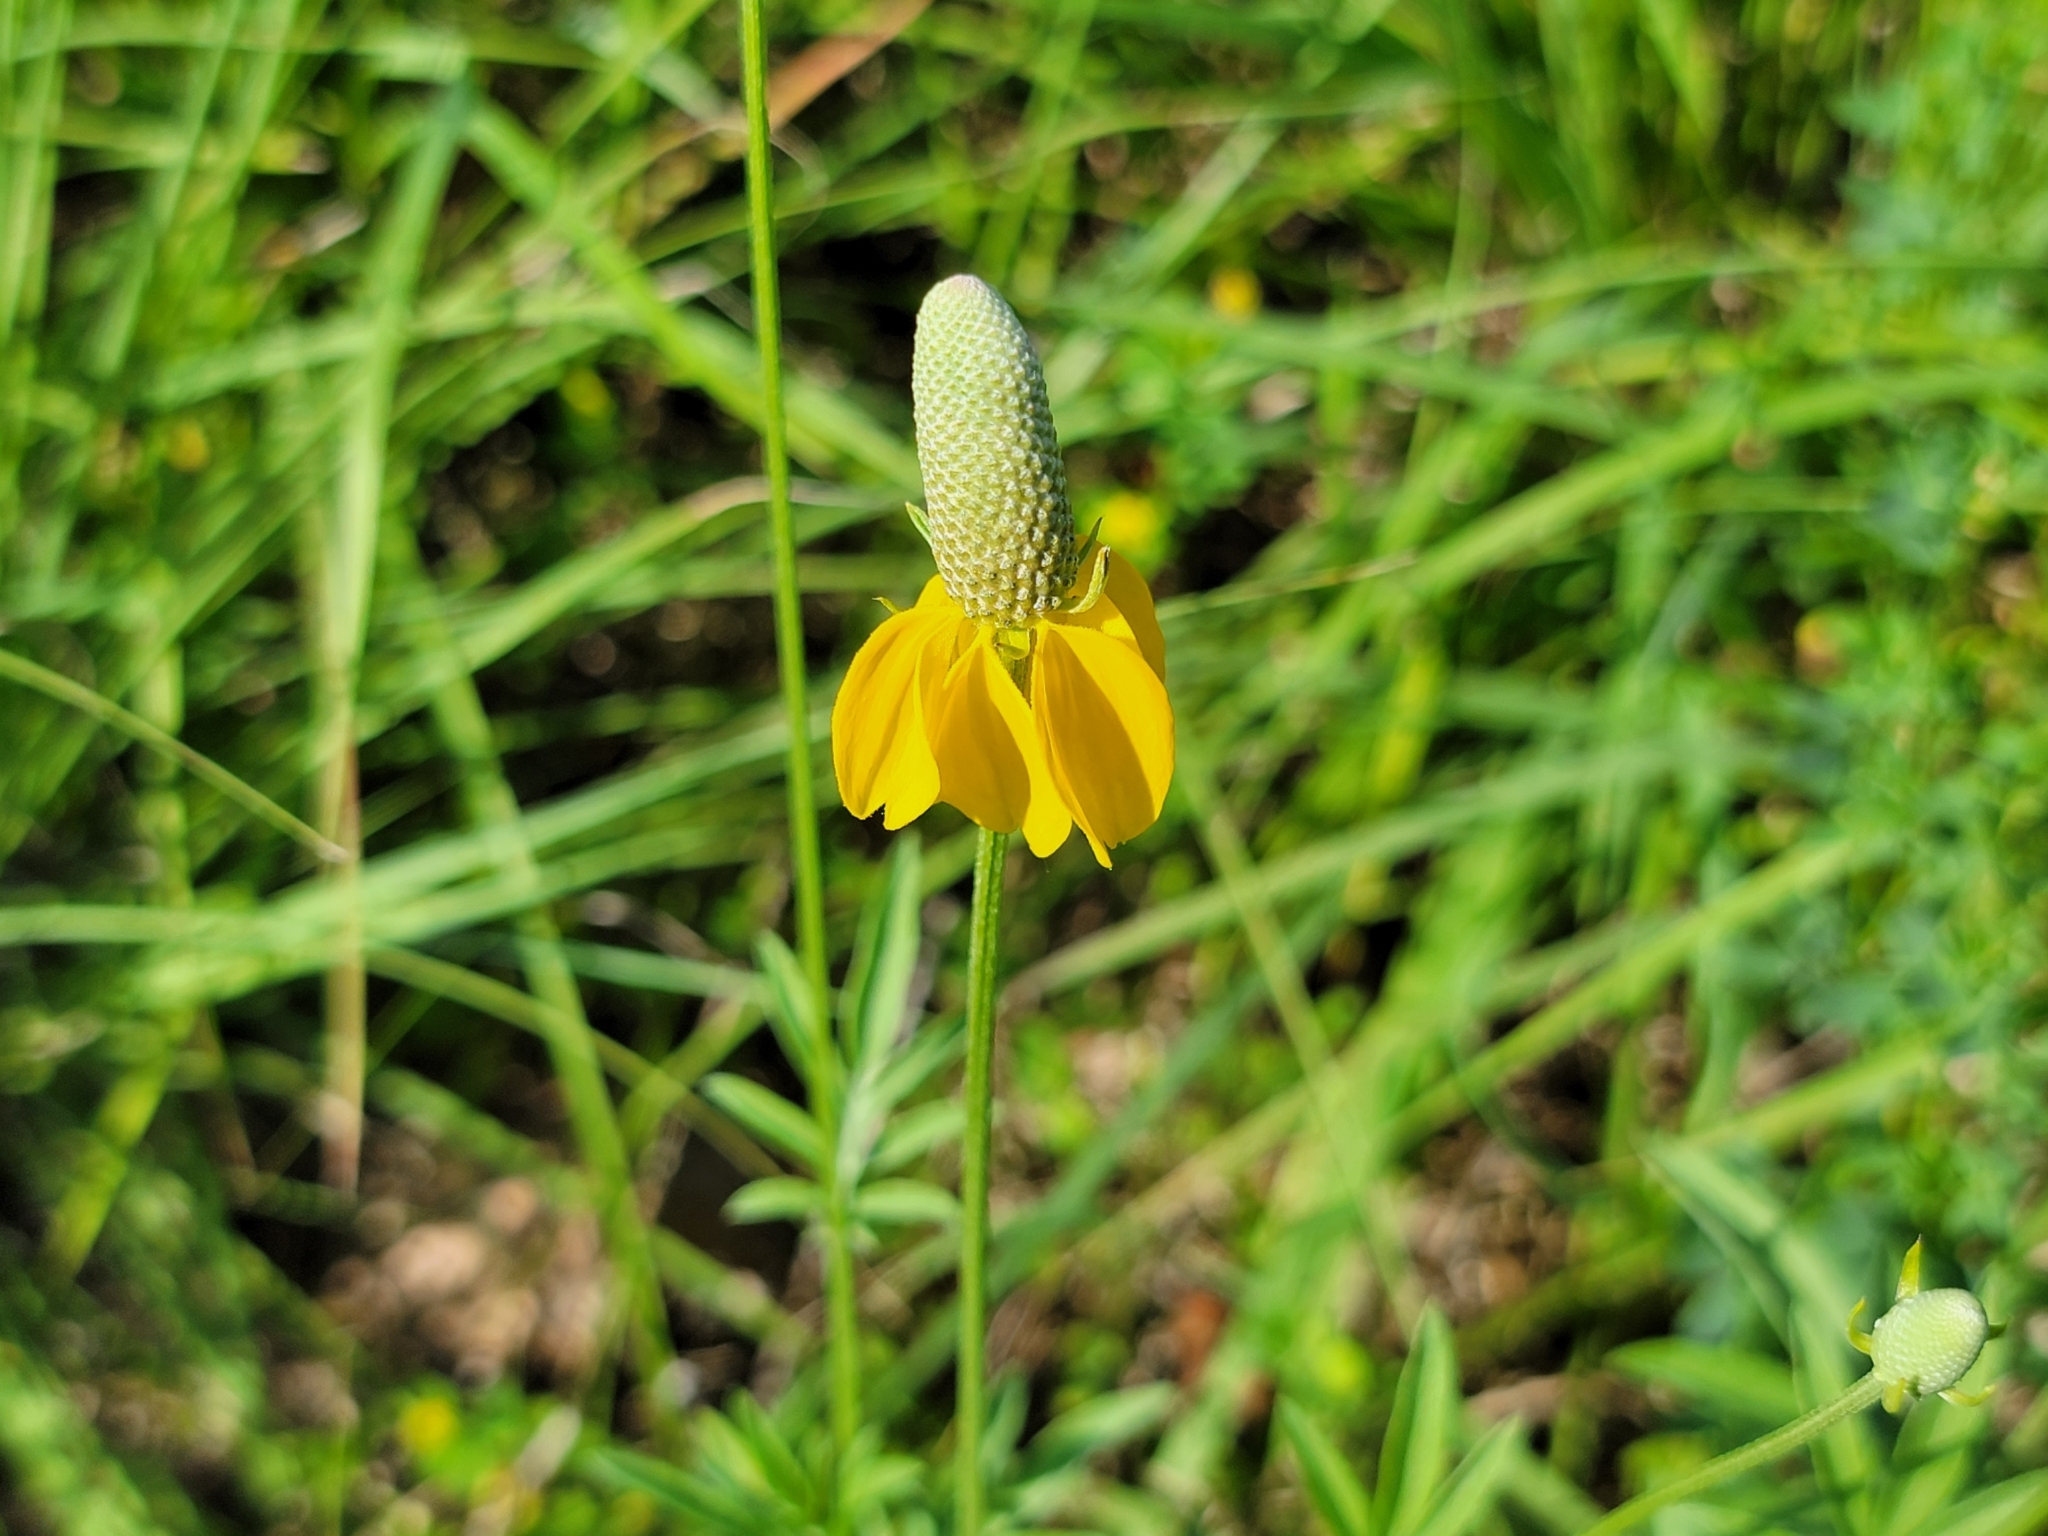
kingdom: Plantae
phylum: Tracheophyta
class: Magnoliopsida
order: Asterales
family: Asteraceae
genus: Ratibida
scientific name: Ratibida columnifera
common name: Prairie coneflower
